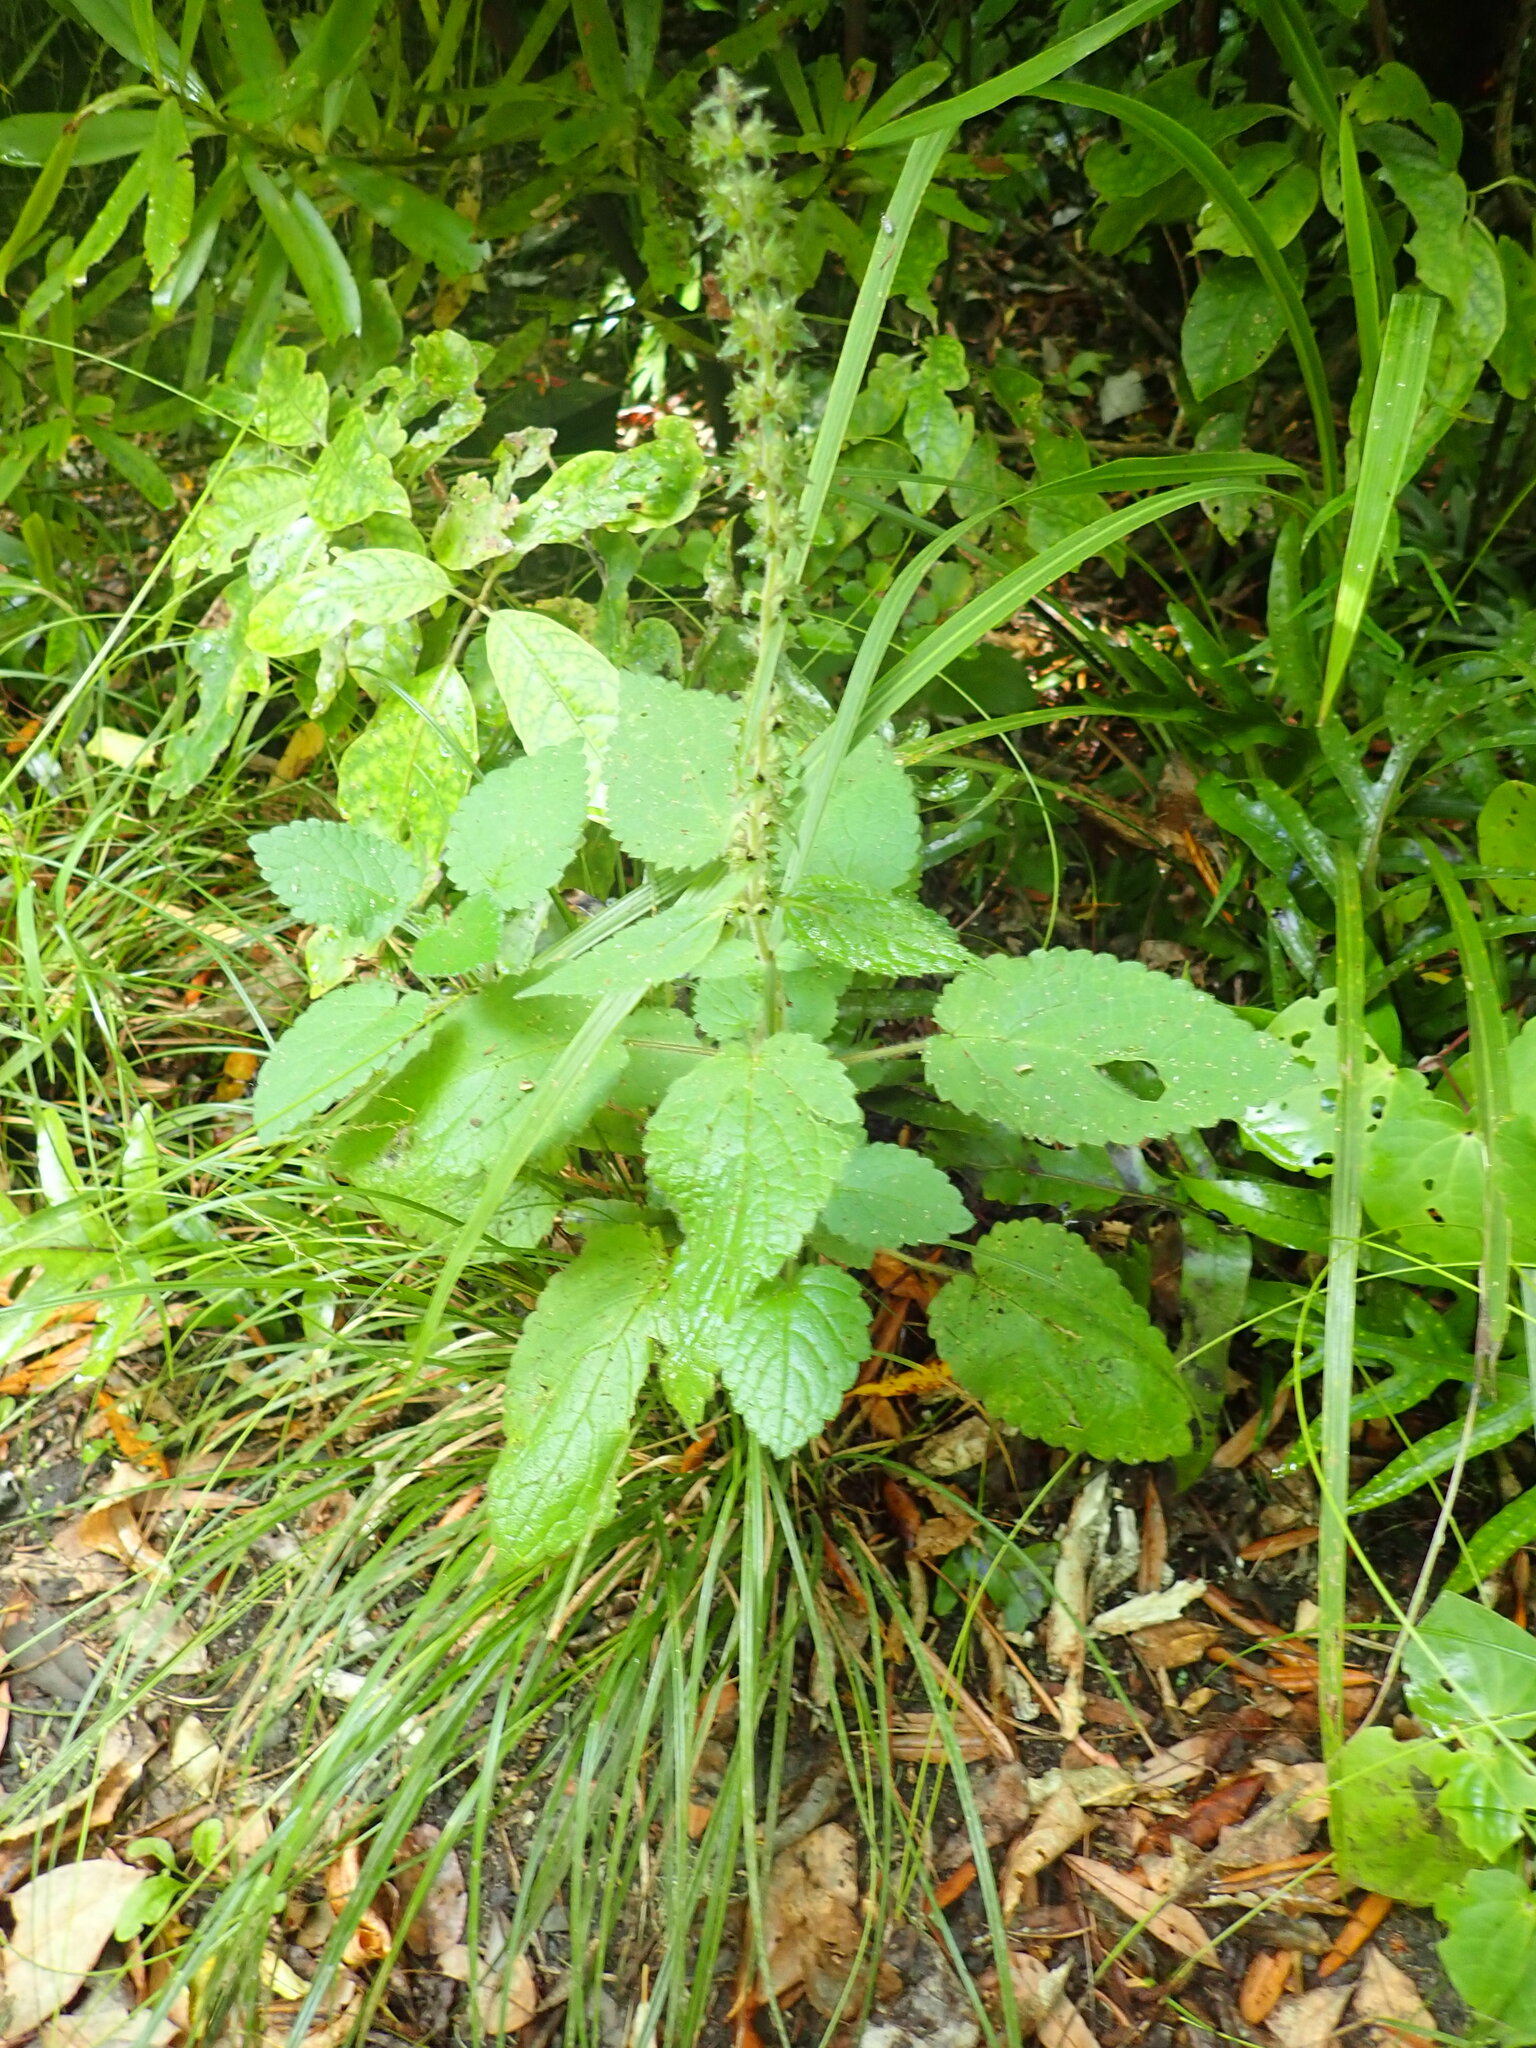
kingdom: Plantae
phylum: Tracheophyta
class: Magnoliopsida
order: Lamiales
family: Lamiaceae
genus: Stachys
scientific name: Stachys sylvatica
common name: Hedge woundwort
